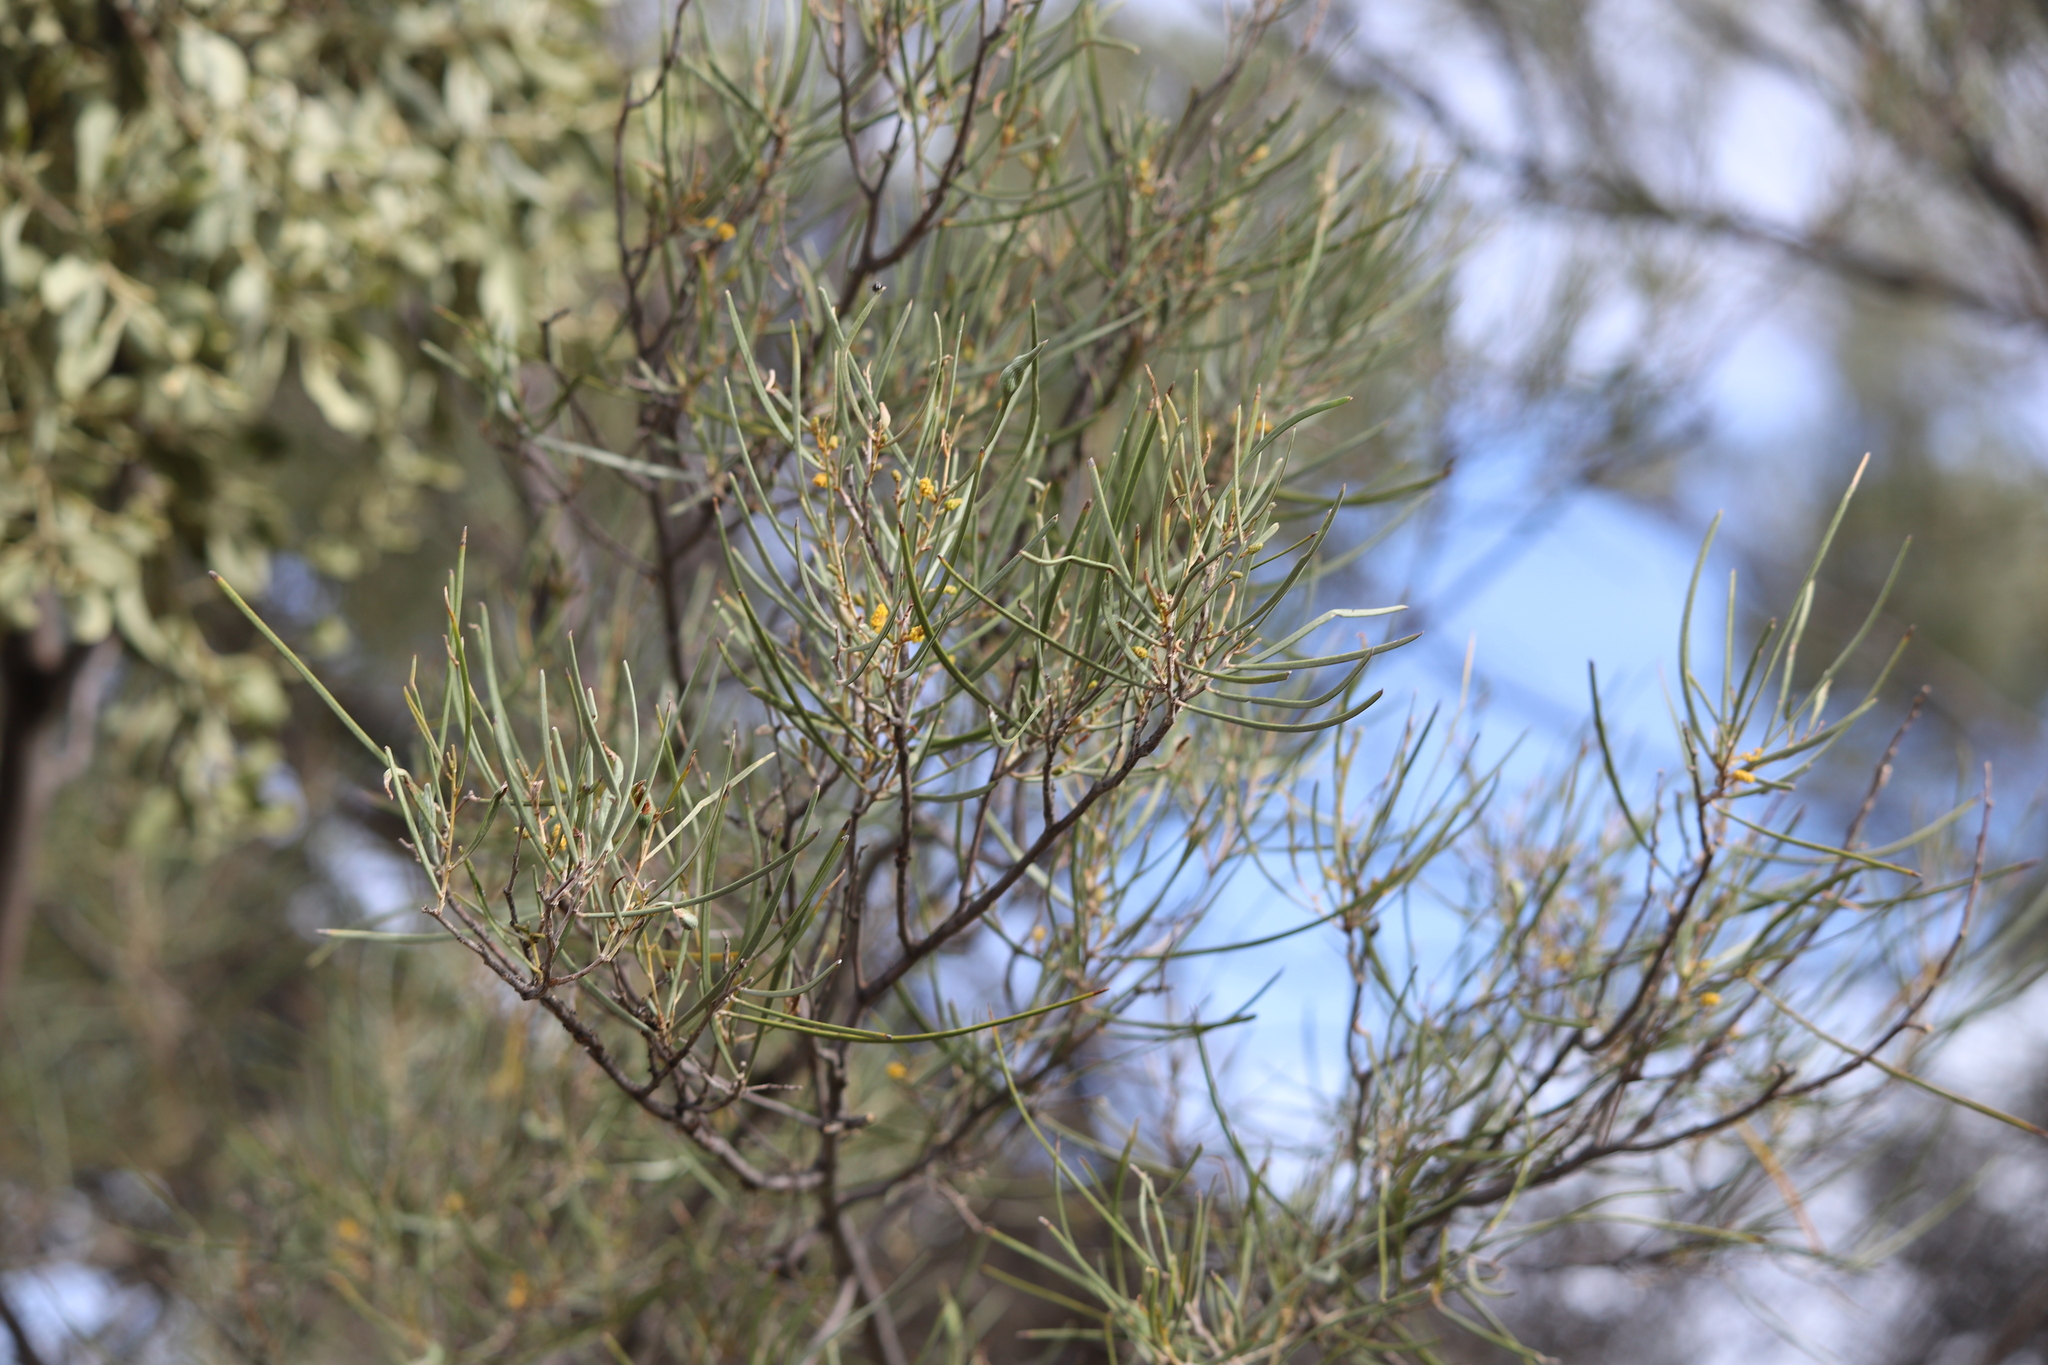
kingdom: Plantae
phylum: Tracheophyta
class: Magnoliopsida
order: Fabales
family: Fabaceae
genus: Acacia
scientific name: Acacia aneura
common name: Mulga
